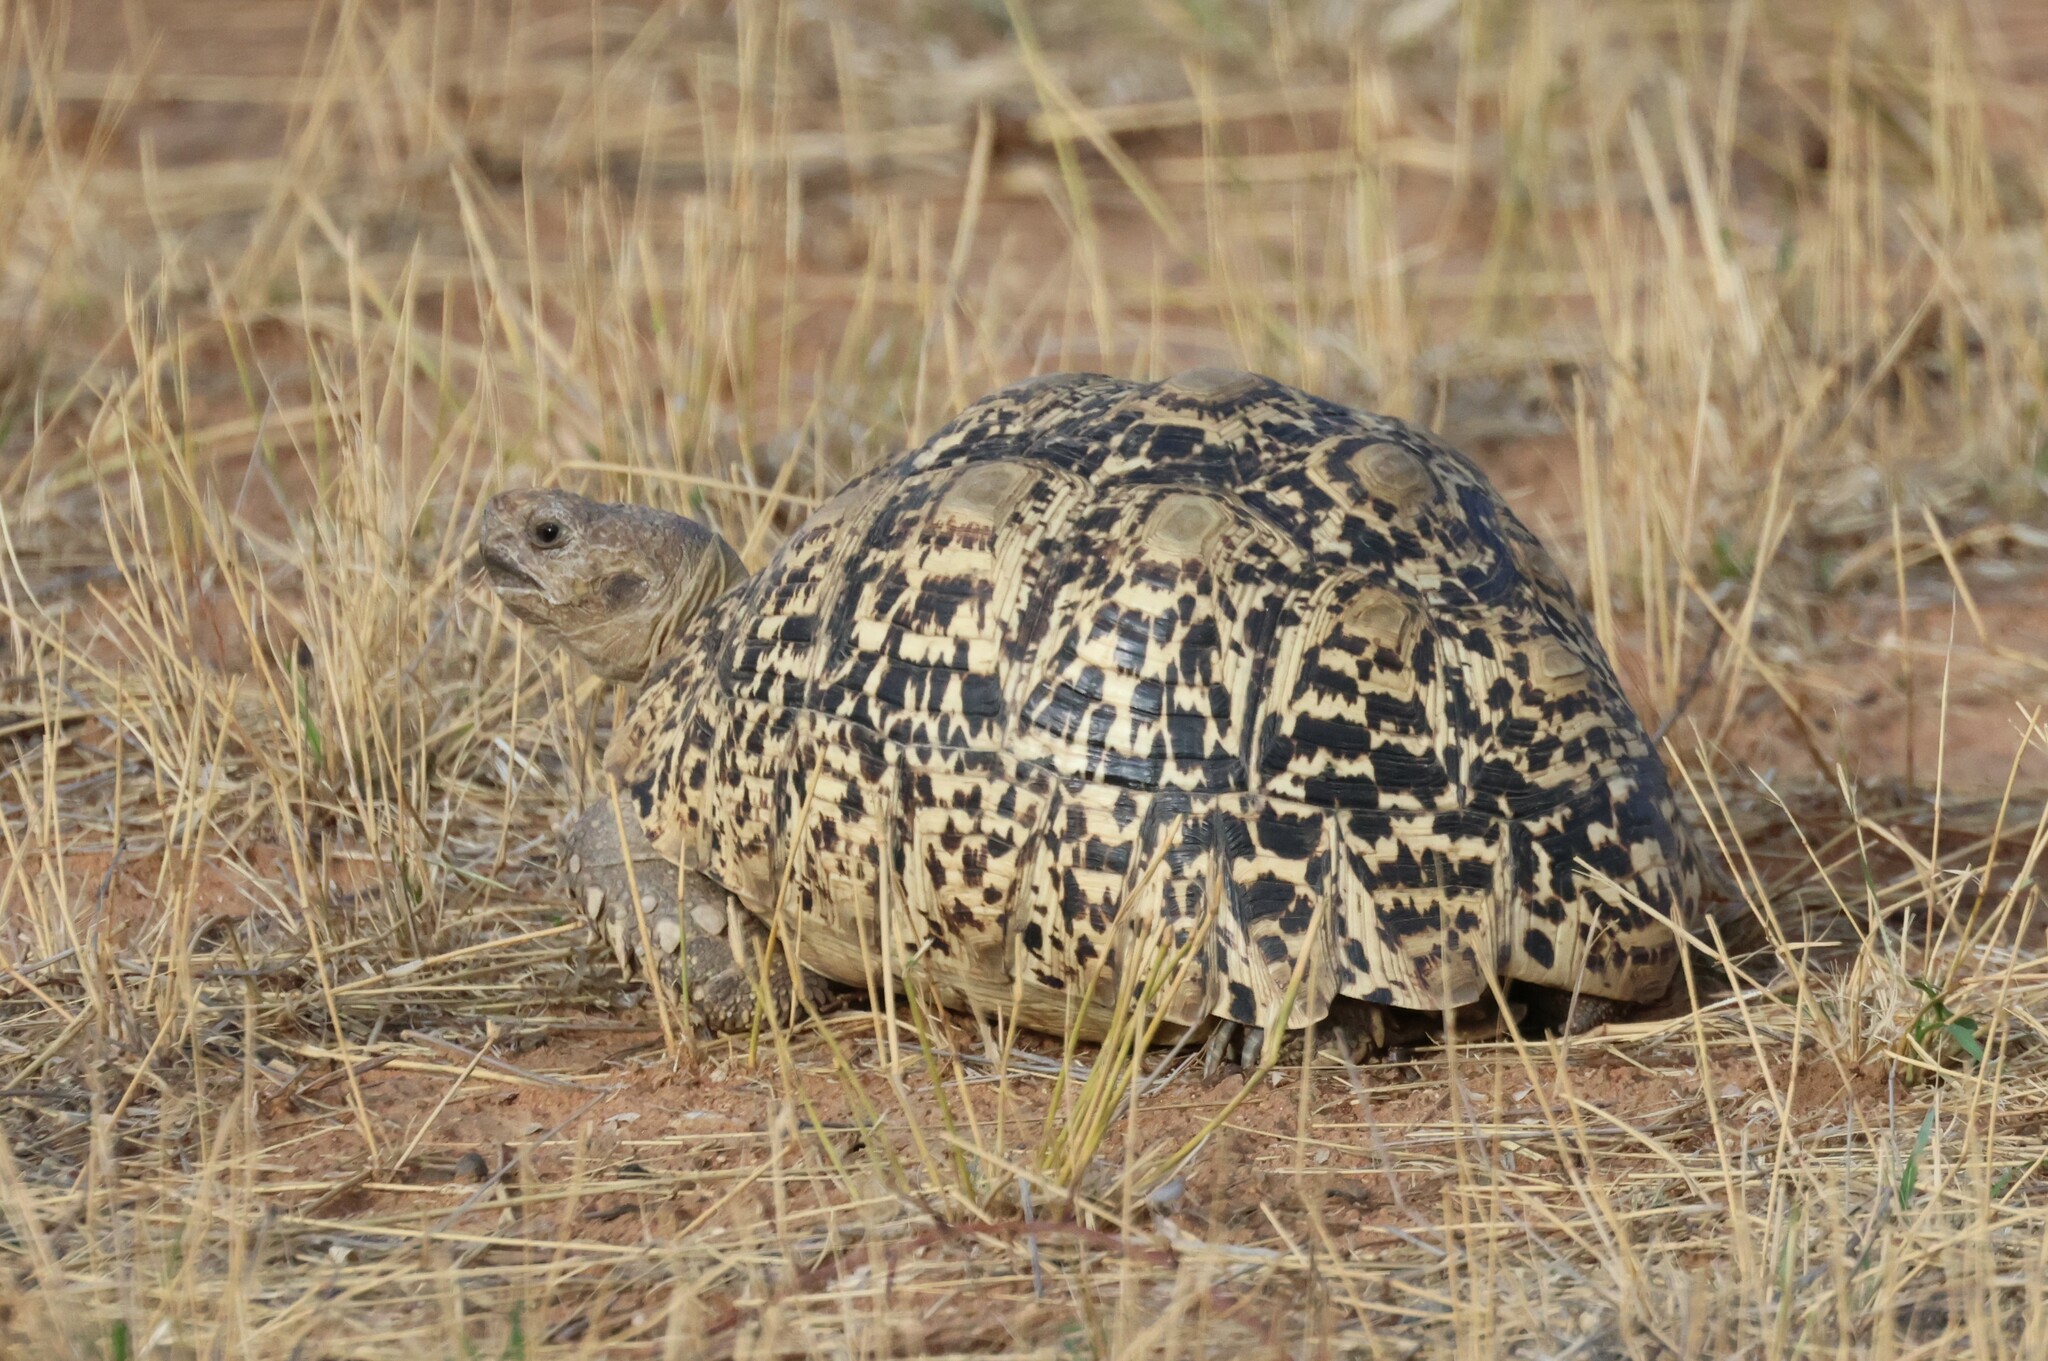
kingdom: Animalia
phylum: Chordata
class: Testudines
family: Testudinidae
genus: Stigmochelys
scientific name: Stigmochelys pardalis
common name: Leopard tortoise
